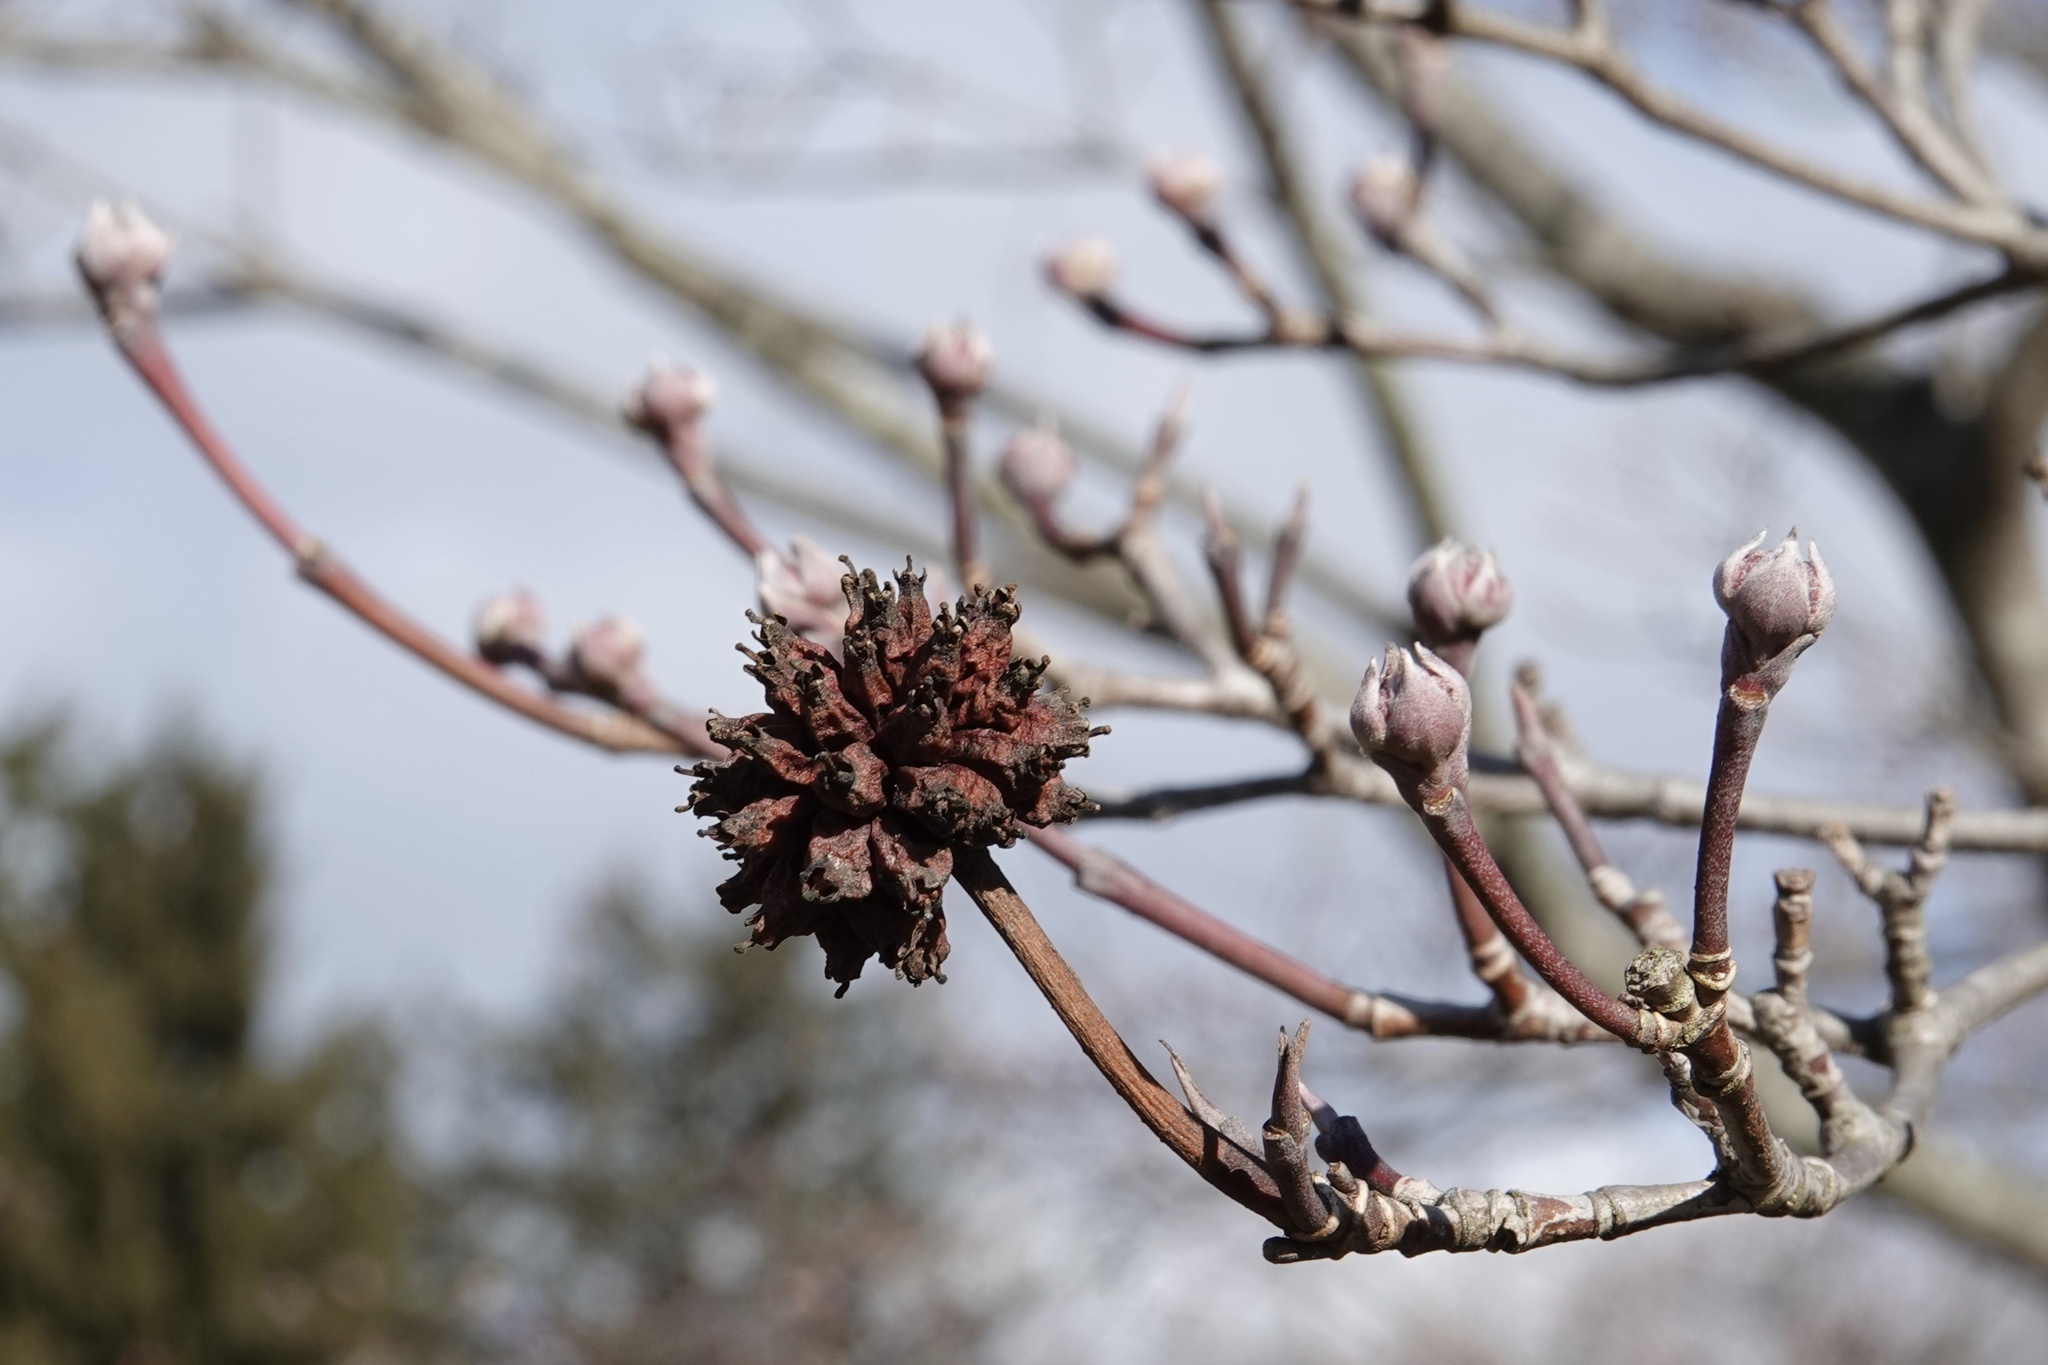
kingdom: Plantae
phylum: Tracheophyta
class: Magnoliopsida
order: Cornales
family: Cornaceae
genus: Cornus
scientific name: Cornus florida
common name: Flowering dogwood
